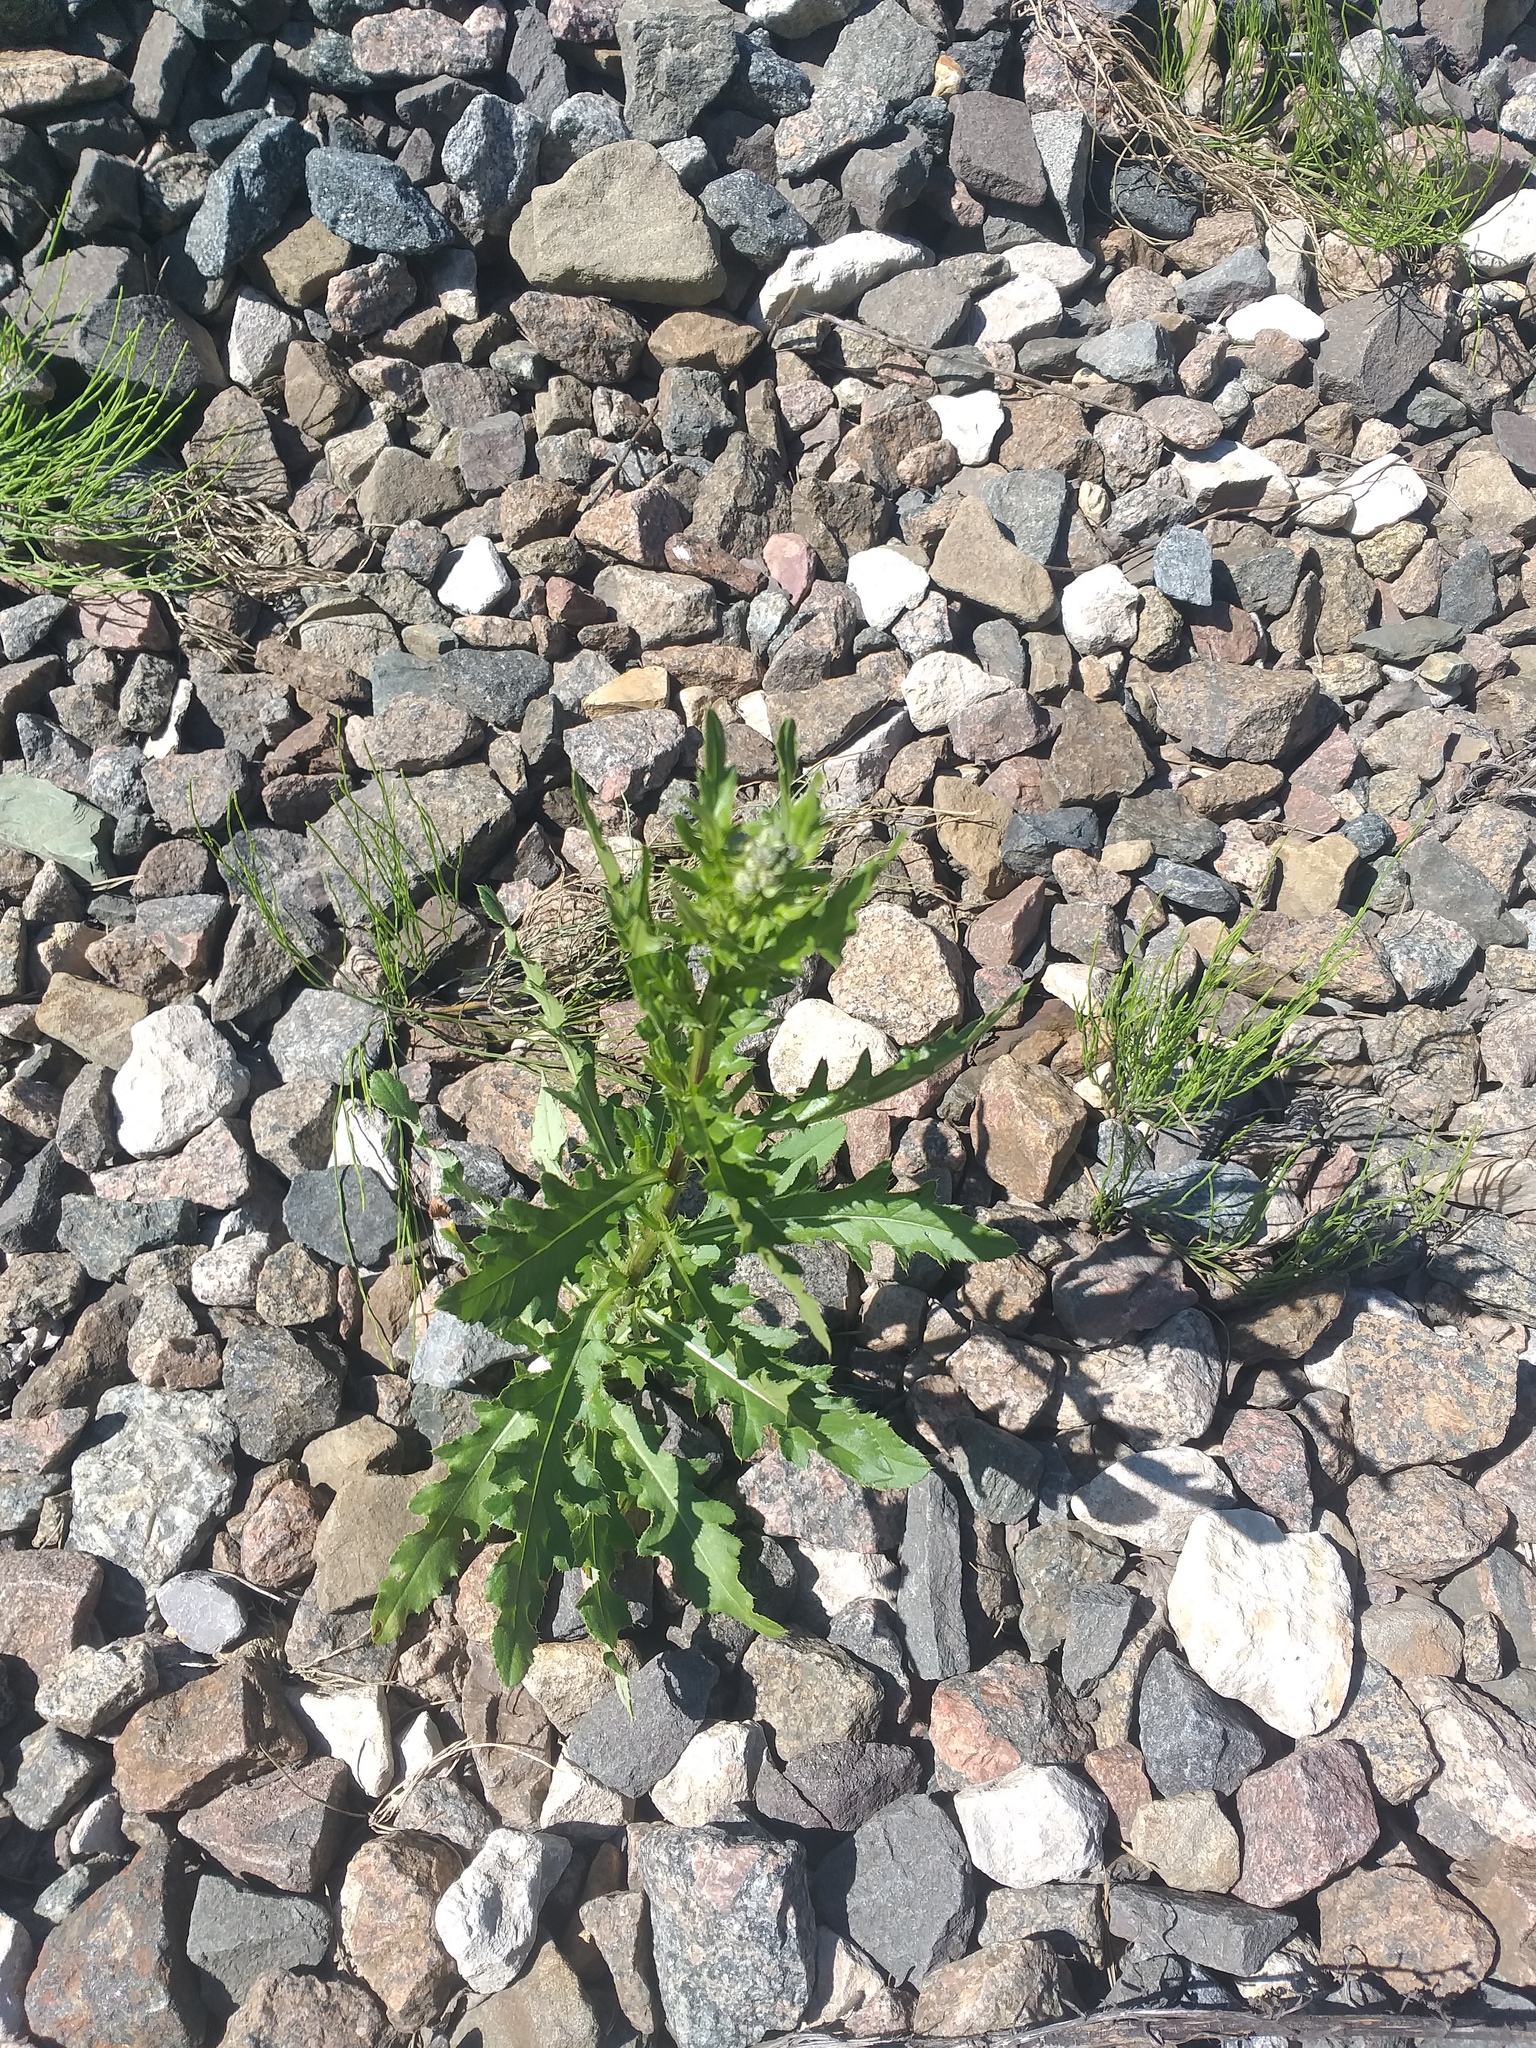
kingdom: Plantae
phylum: Tracheophyta
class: Magnoliopsida
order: Asterales
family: Asteraceae
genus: Cirsium
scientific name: Cirsium arvense
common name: Creeping thistle
